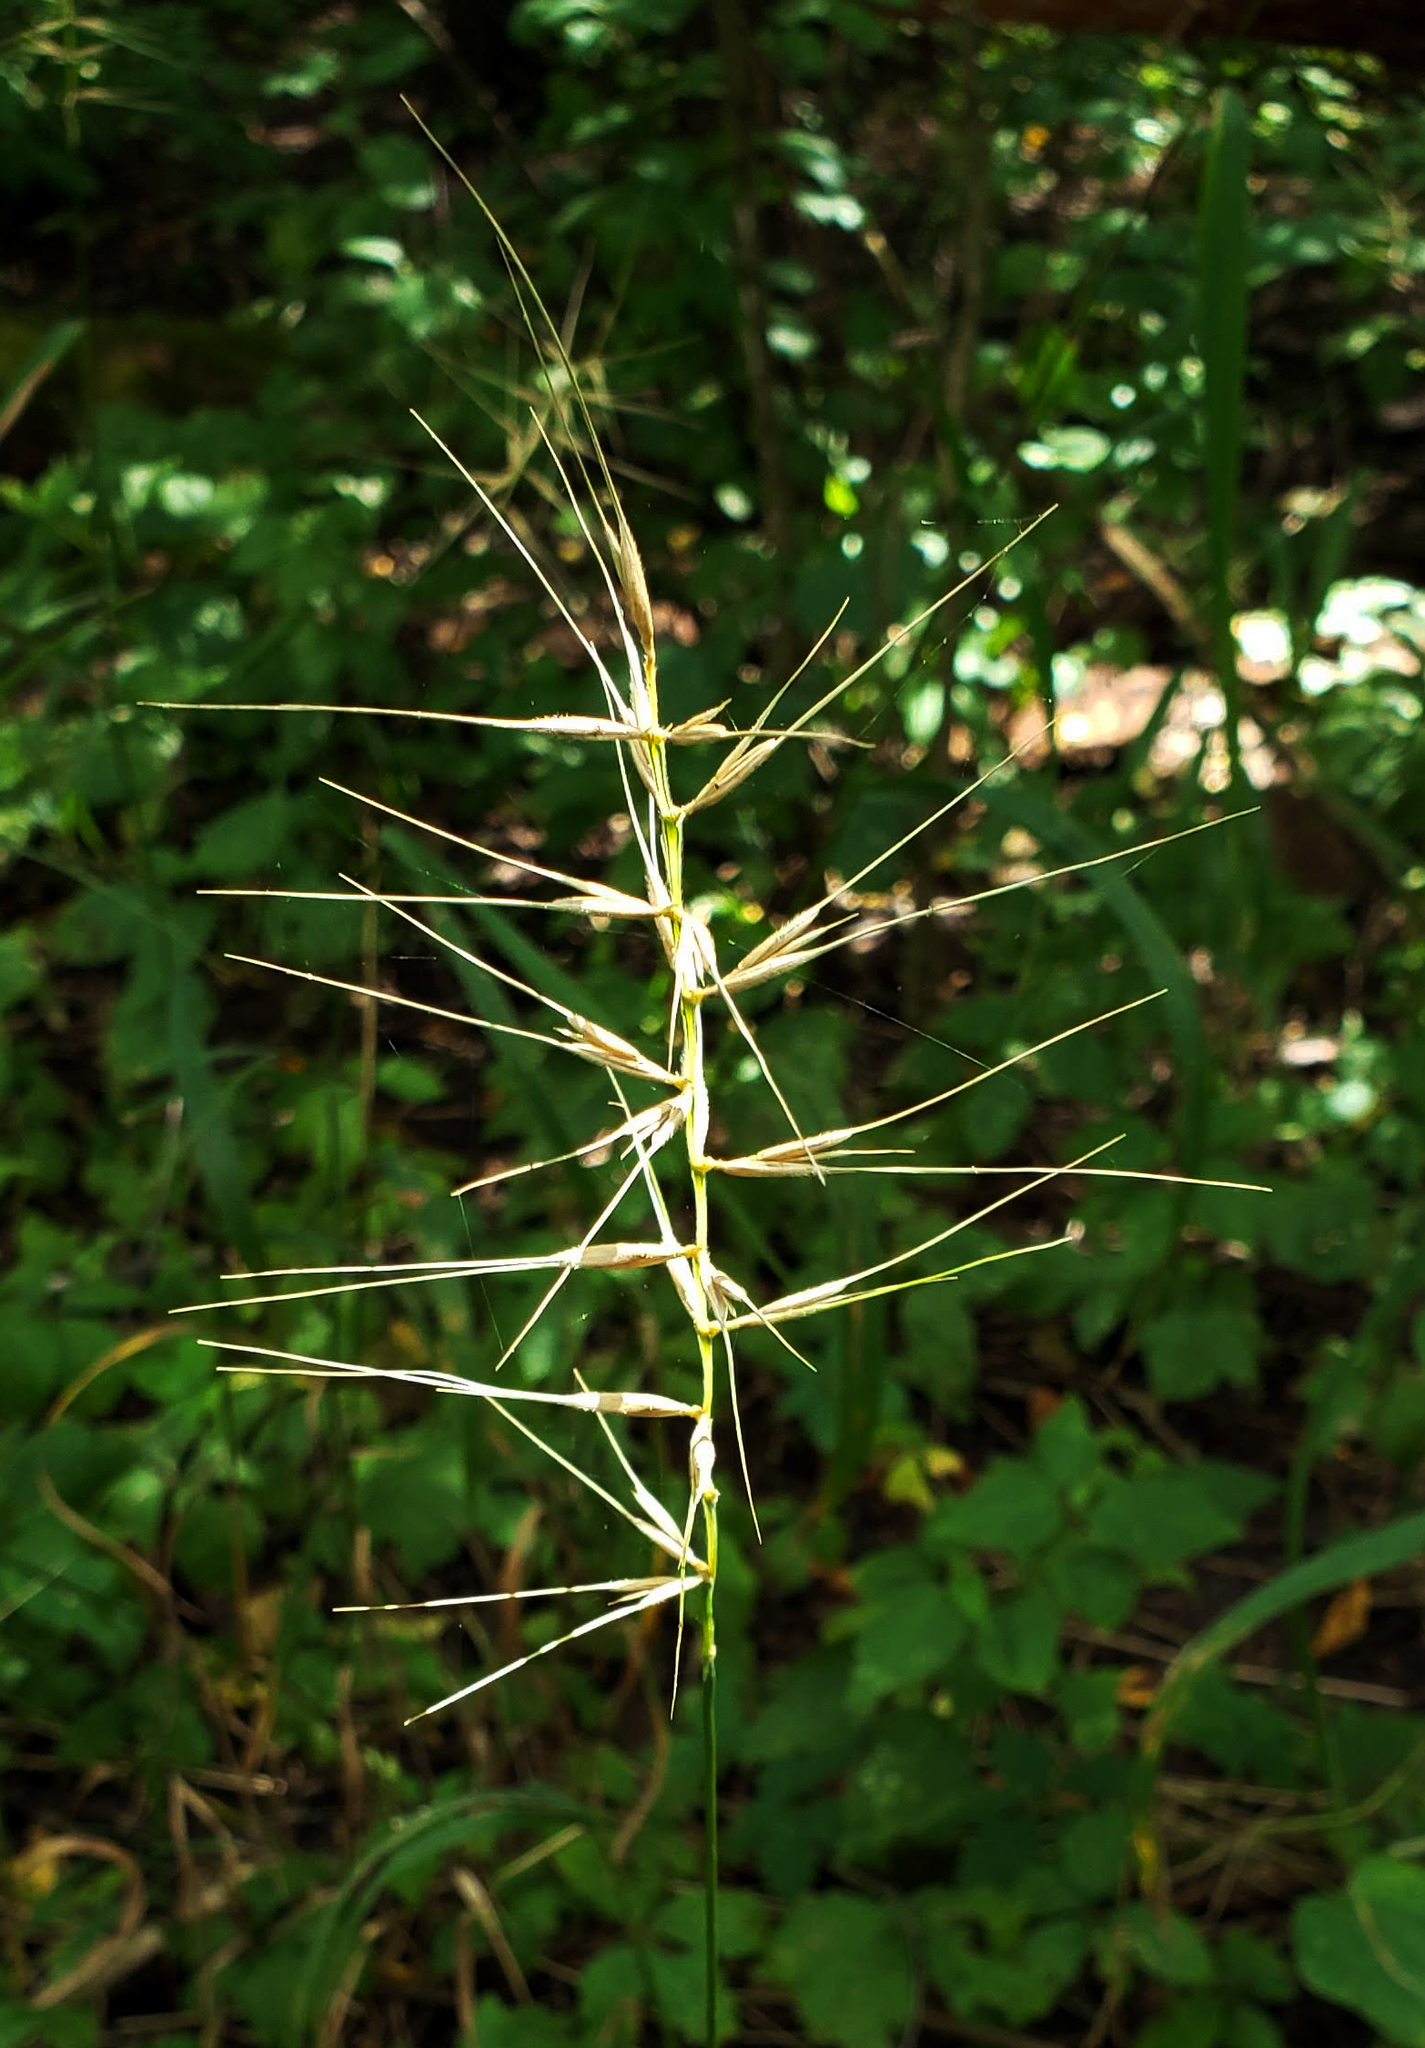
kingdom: Plantae
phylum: Tracheophyta
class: Liliopsida
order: Poales
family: Poaceae
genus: Elymus
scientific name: Elymus hystrix
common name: Bottlebrush grass
